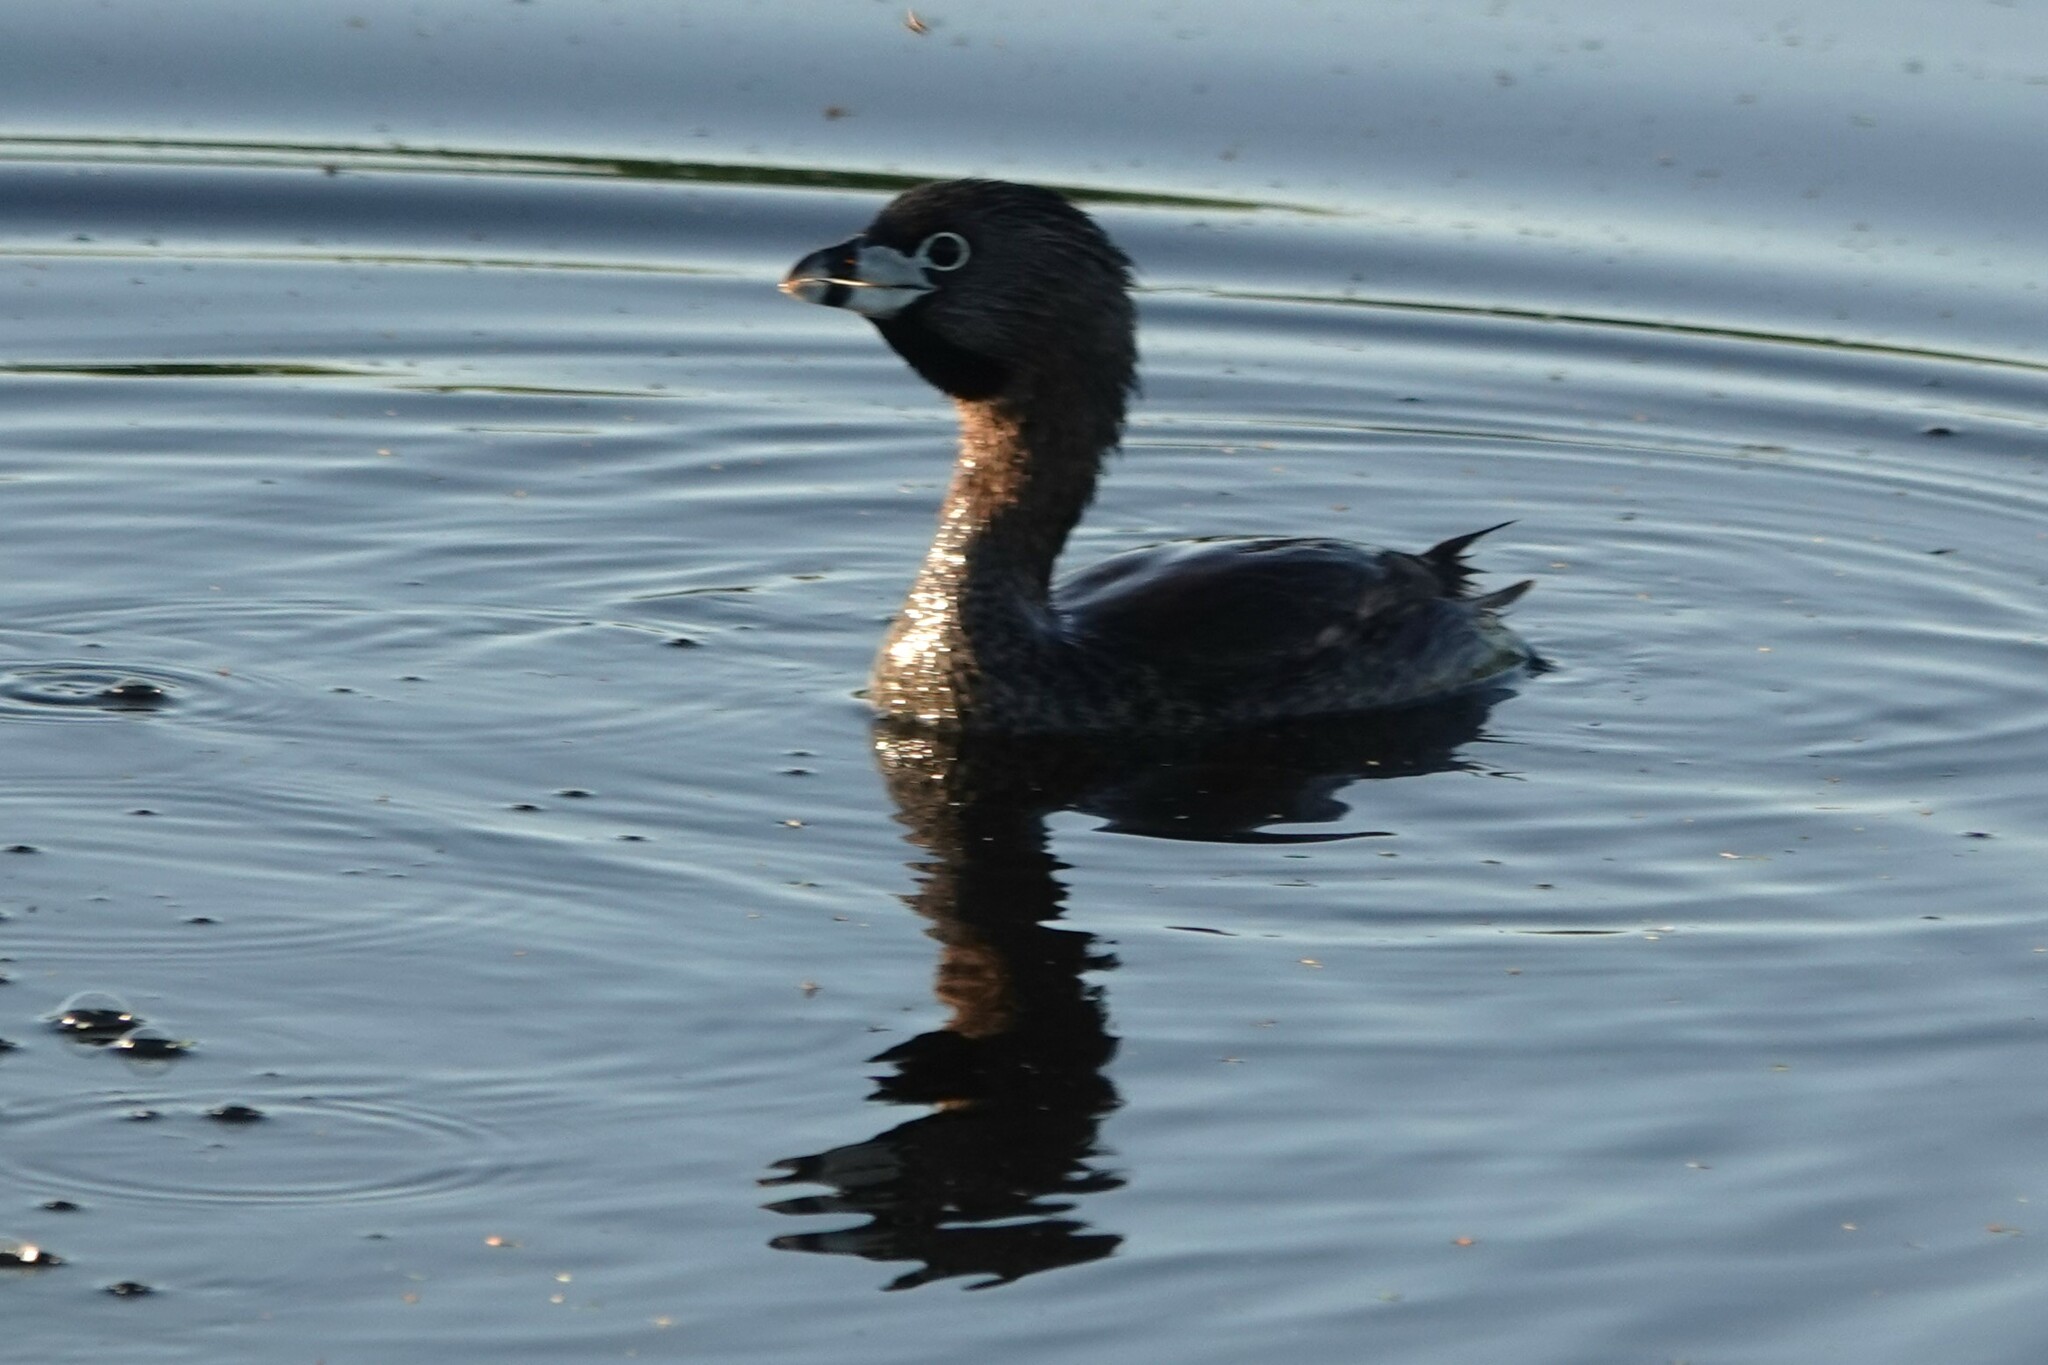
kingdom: Animalia
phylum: Chordata
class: Aves
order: Podicipediformes
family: Podicipedidae
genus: Podilymbus
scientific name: Podilymbus podiceps
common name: Pied-billed grebe
